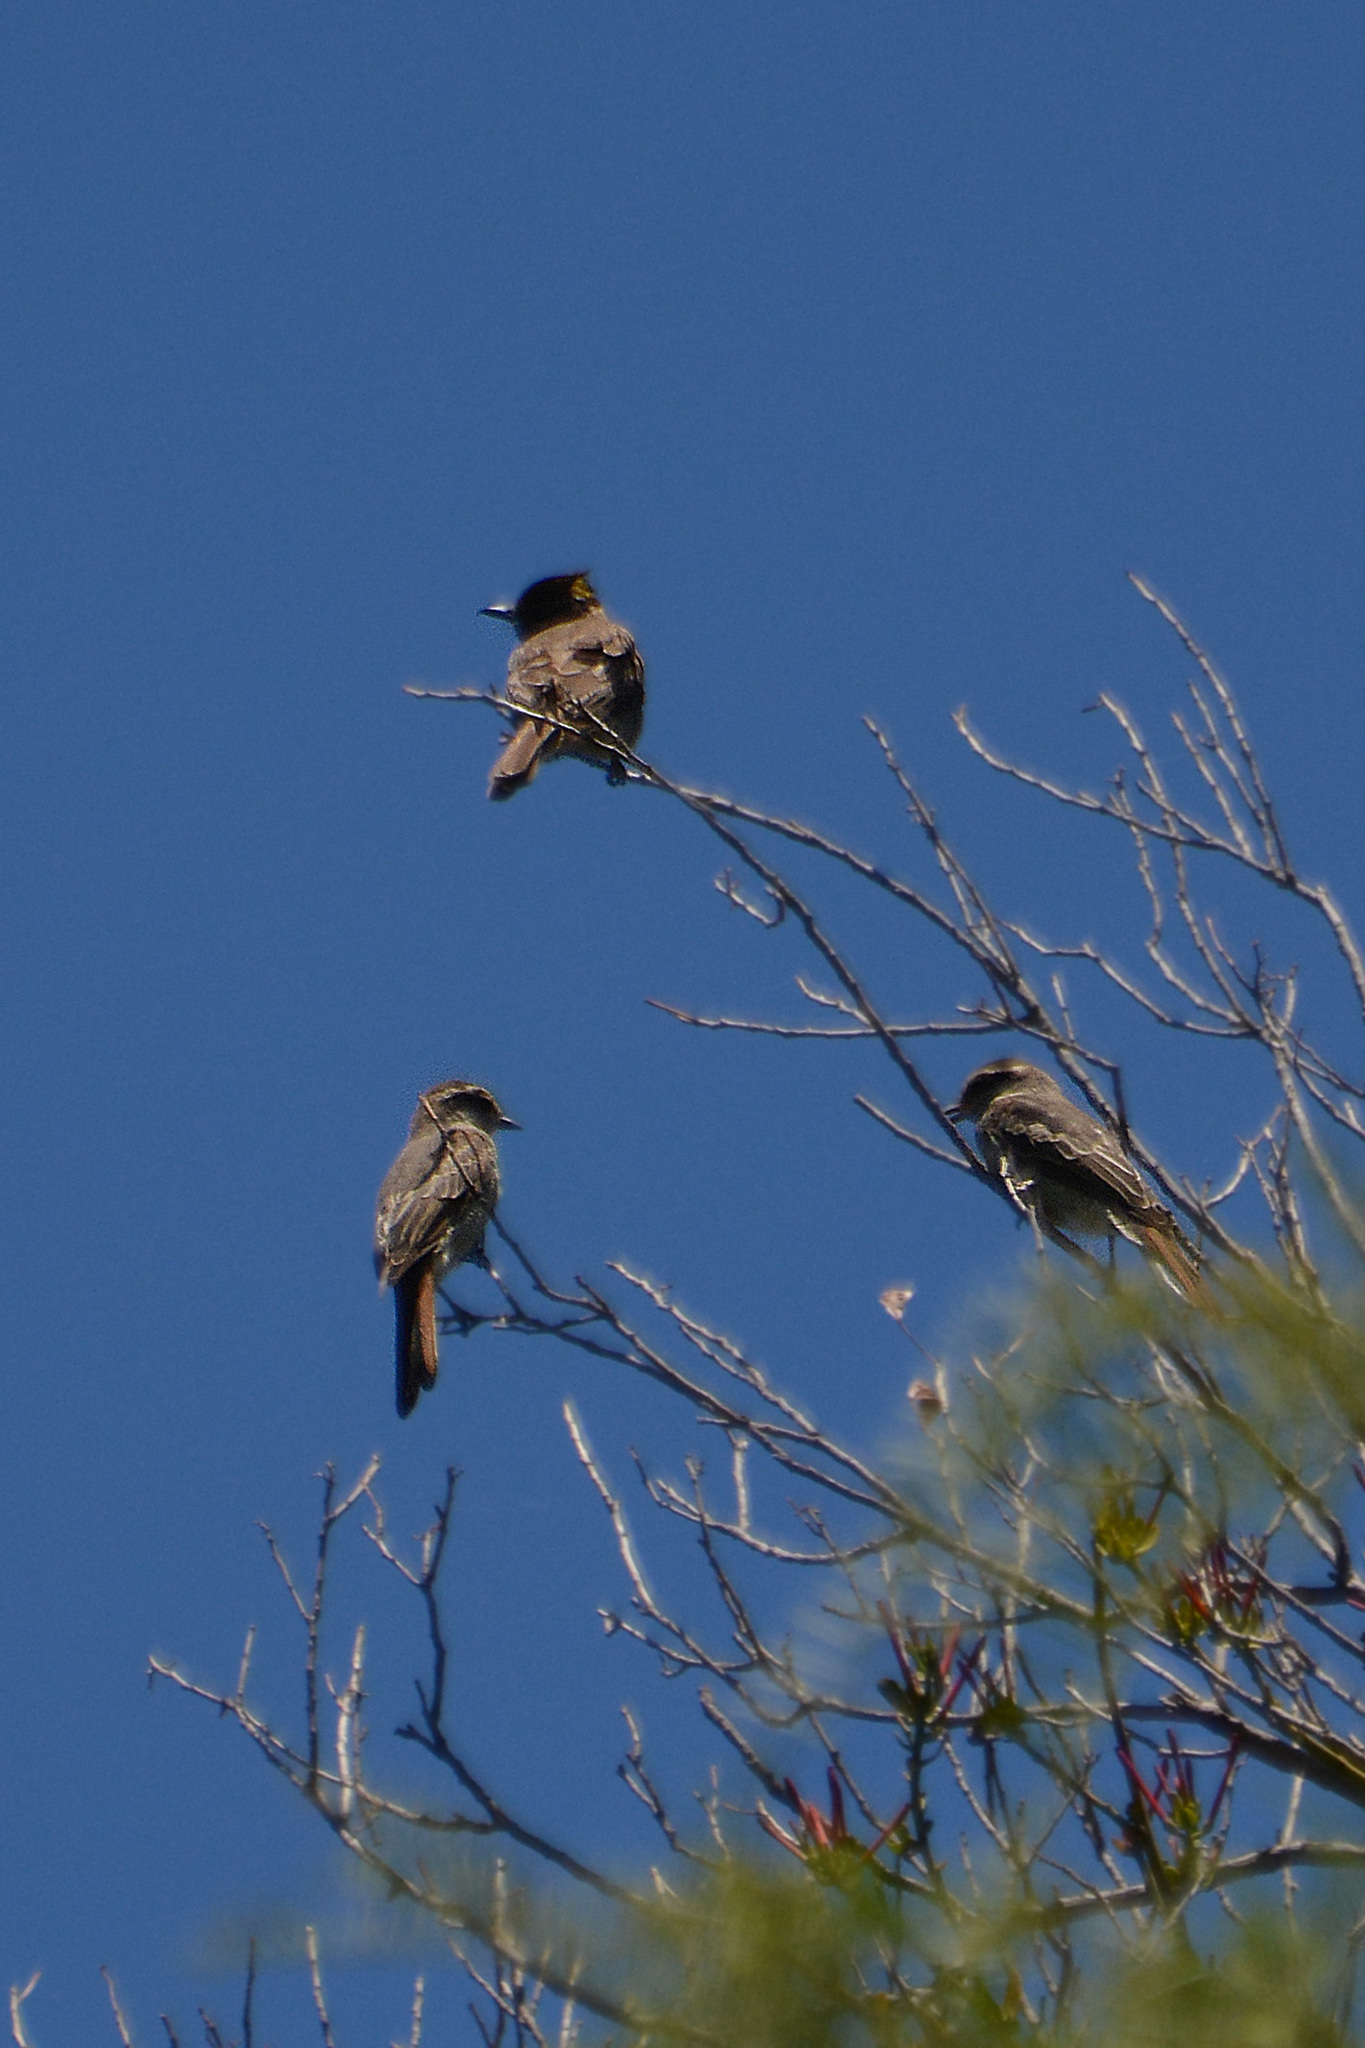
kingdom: Animalia
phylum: Chordata
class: Aves
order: Passeriformes
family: Tyrannidae
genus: Empidonomus
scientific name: Empidonomus aurantioatrocristatus
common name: Crowned slaty flycatcher
